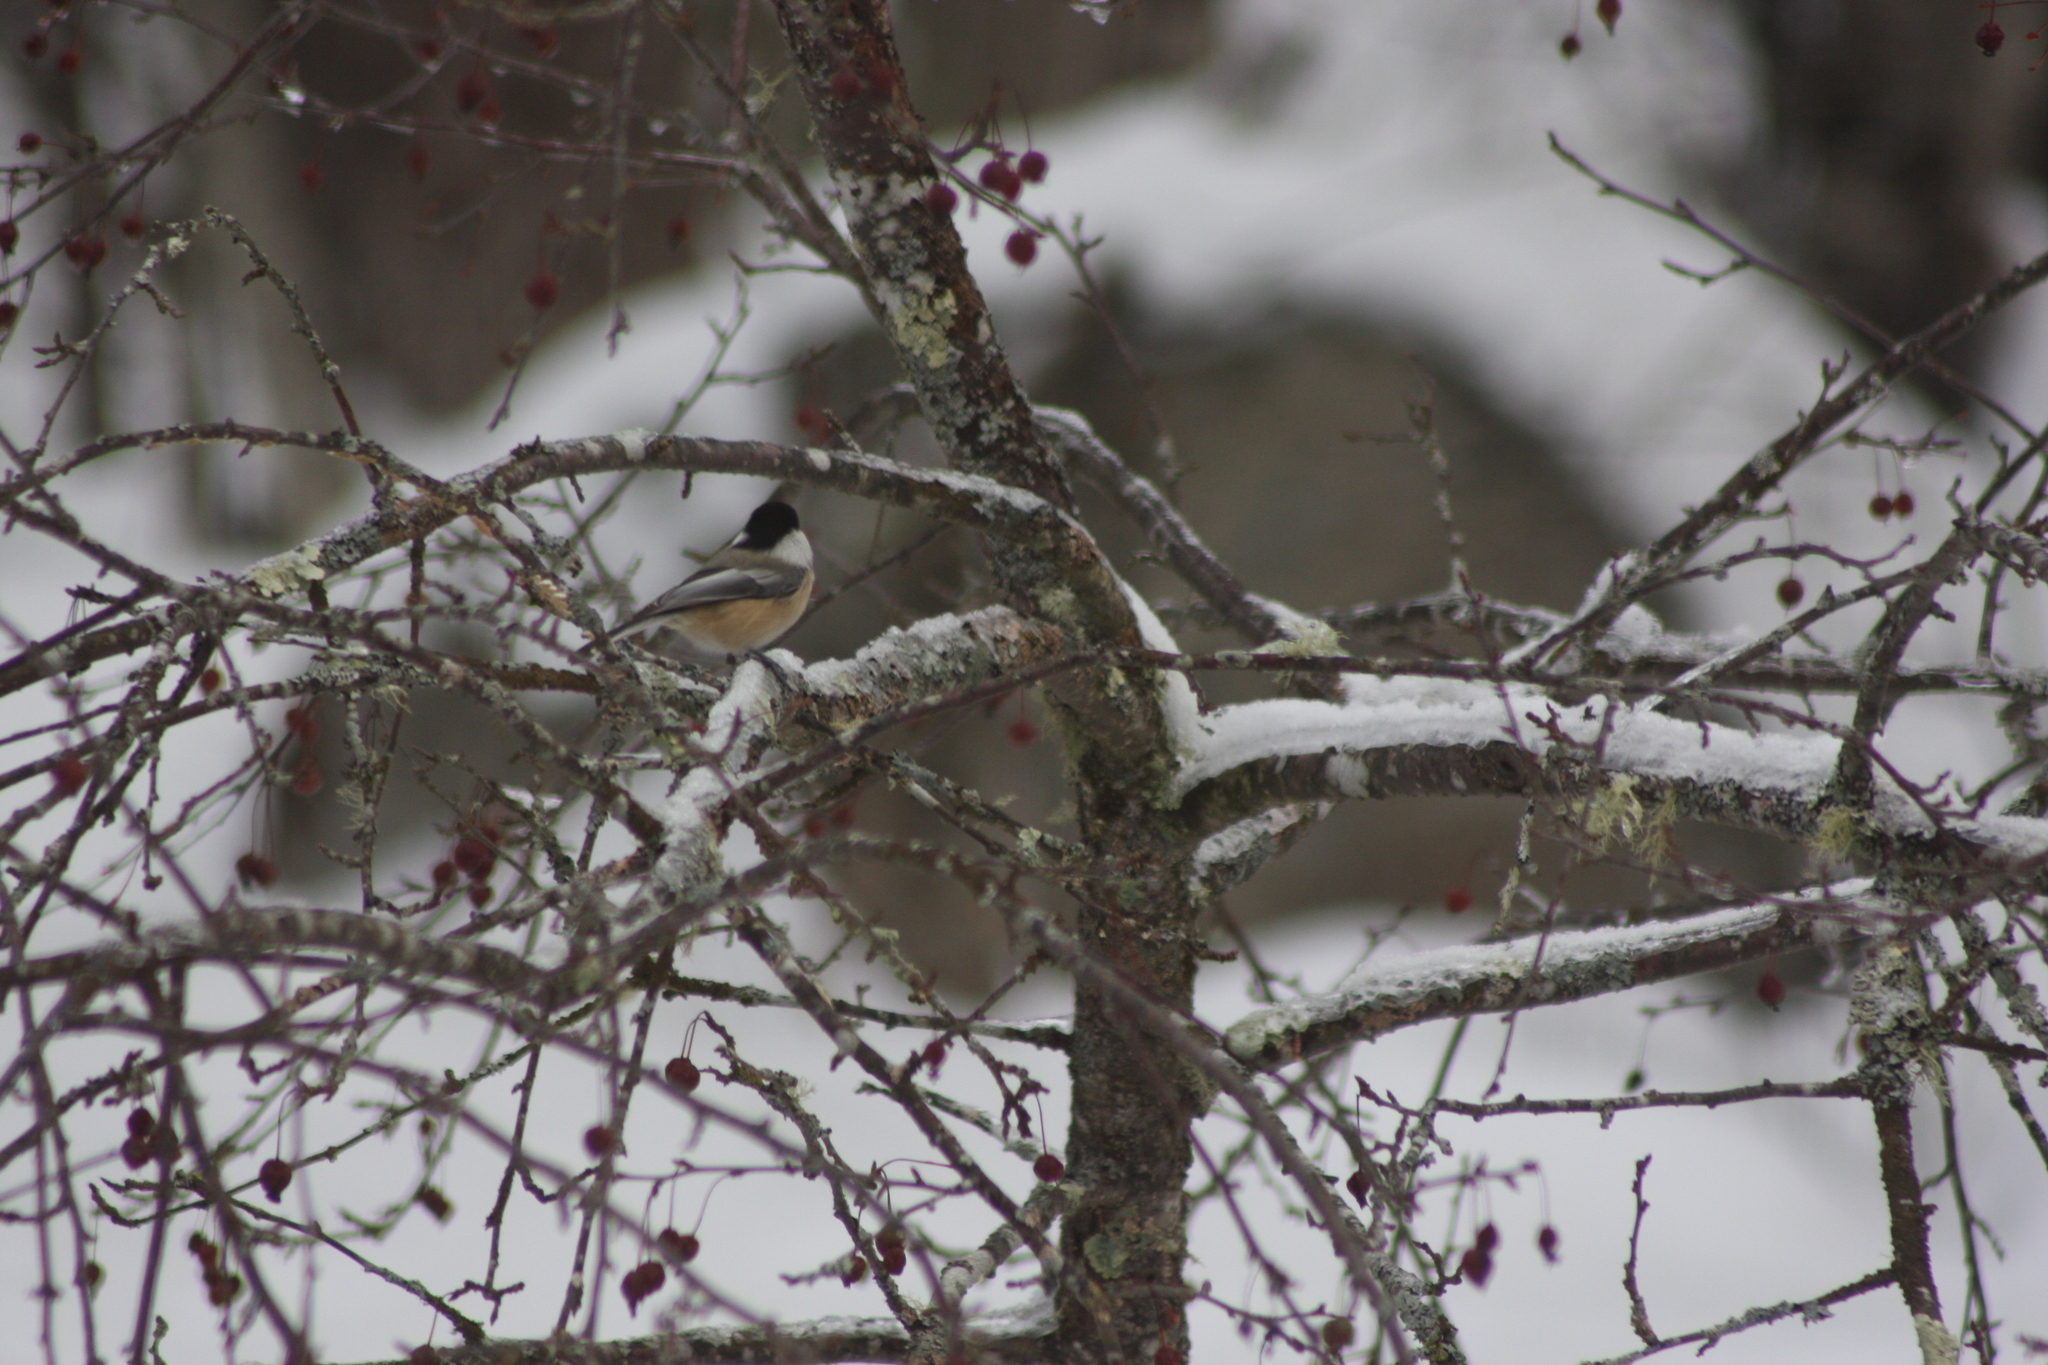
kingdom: Animalia
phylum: Chordata
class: Aves
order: Passeriformes
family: Paridae
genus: Poecile
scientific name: Poecile atricapillus
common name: Black-capped chickadee
